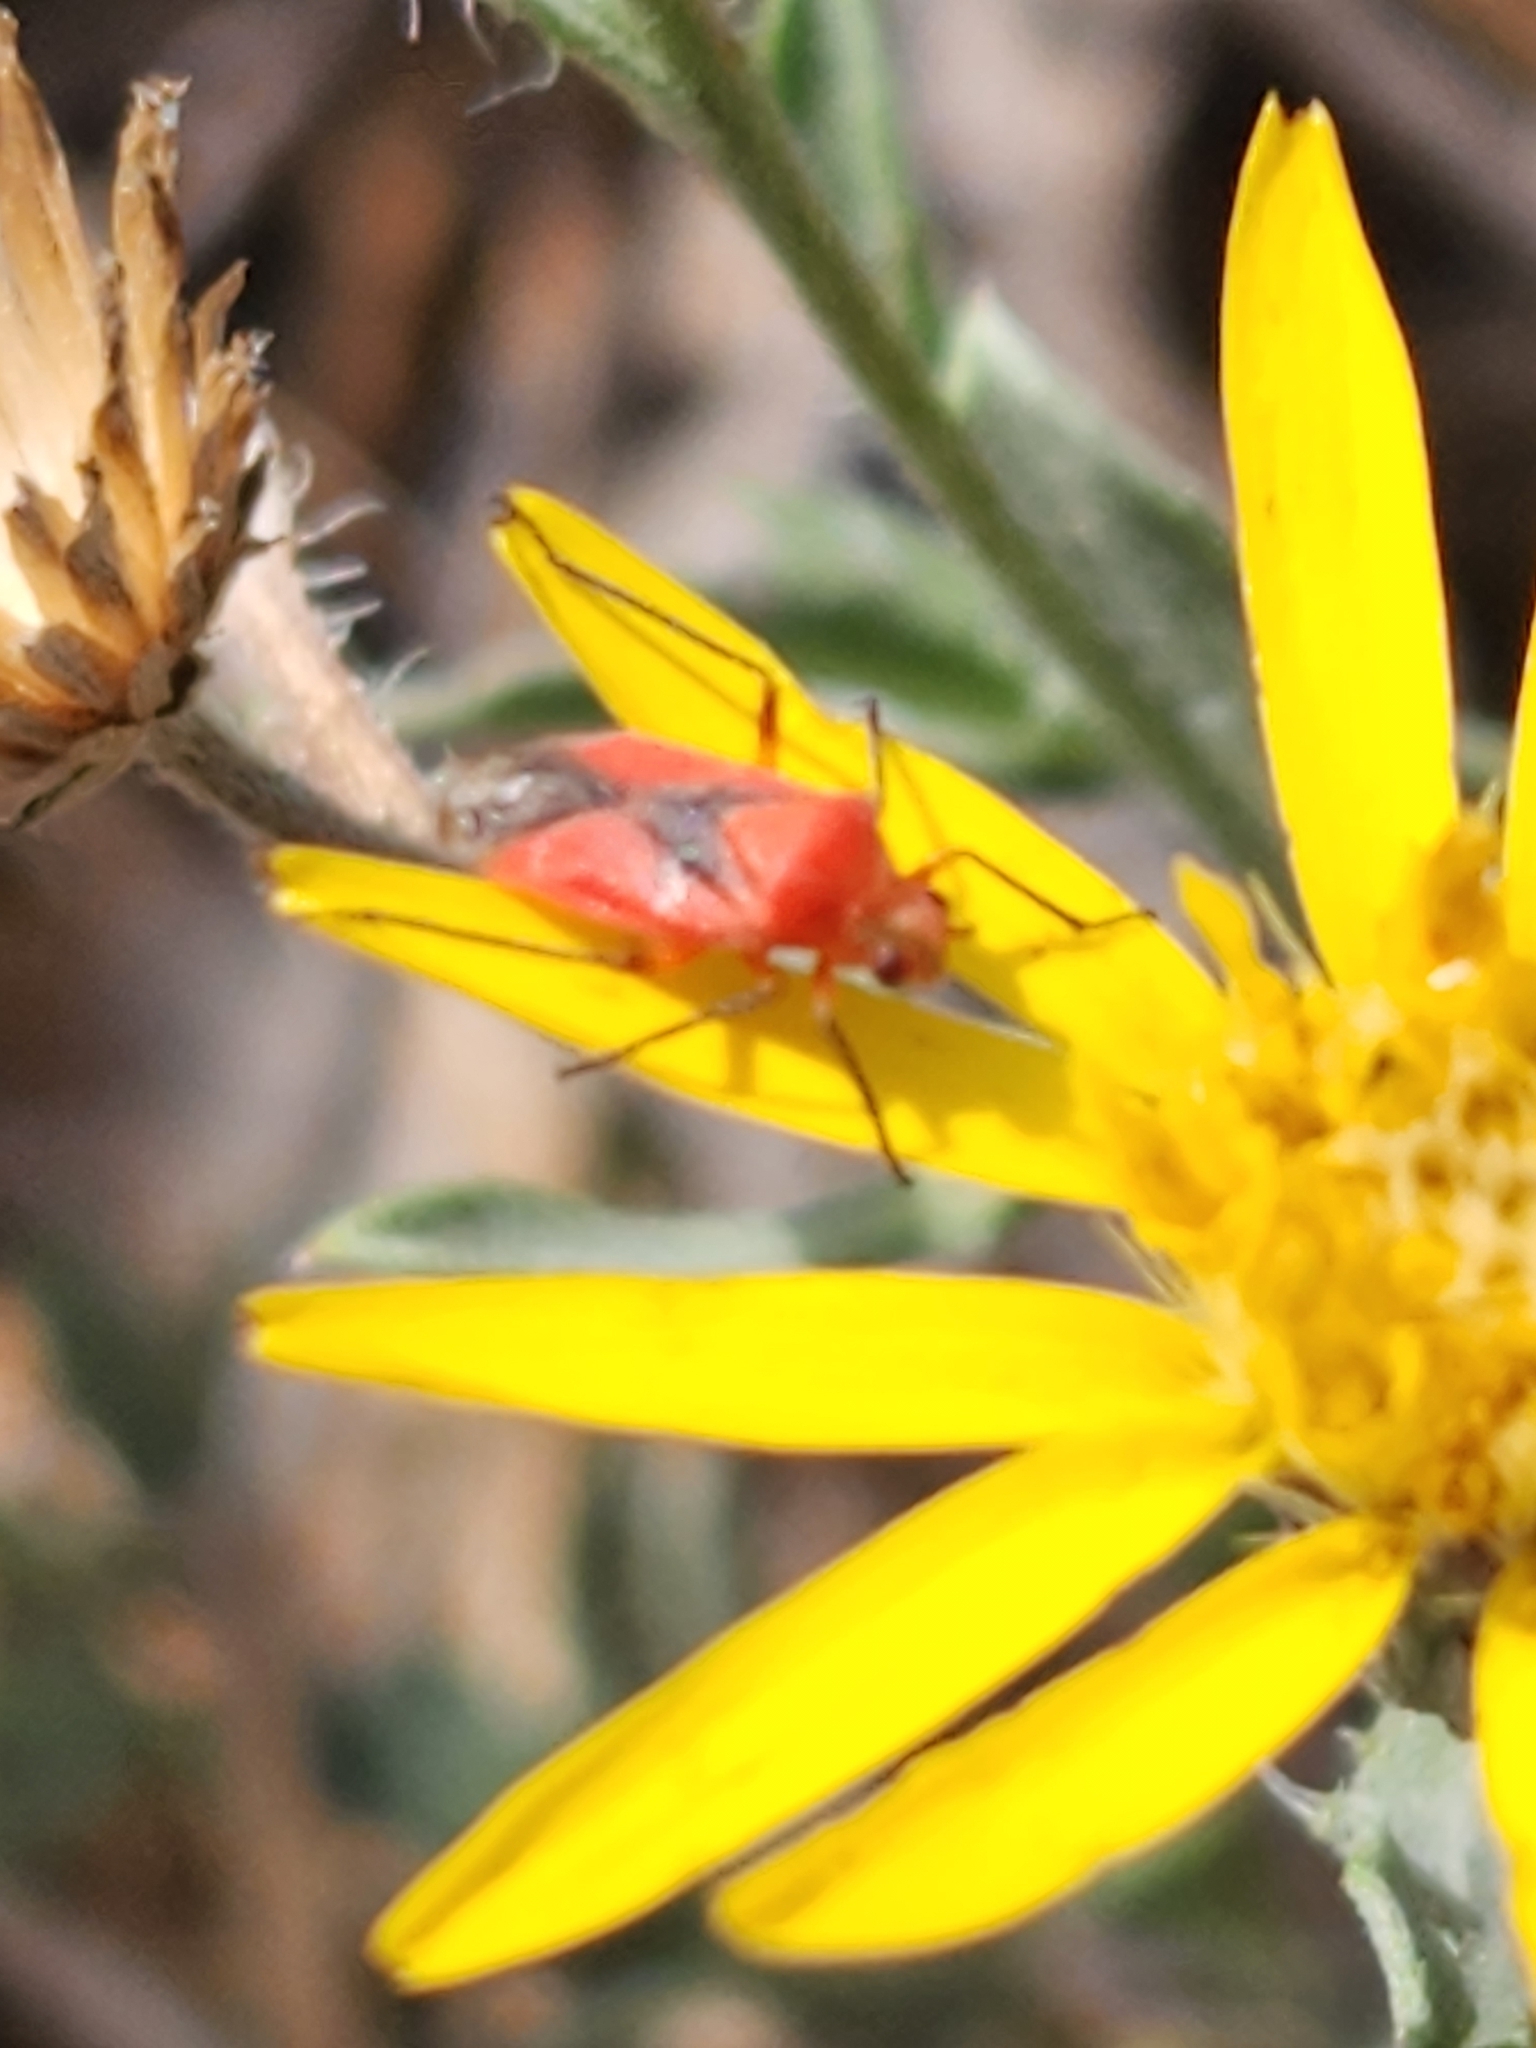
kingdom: Animalia
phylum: Arthropoda
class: Insecta
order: Hemiptera
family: Miridae
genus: Oncerometopus
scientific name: Oncerometopus nigriclavus
